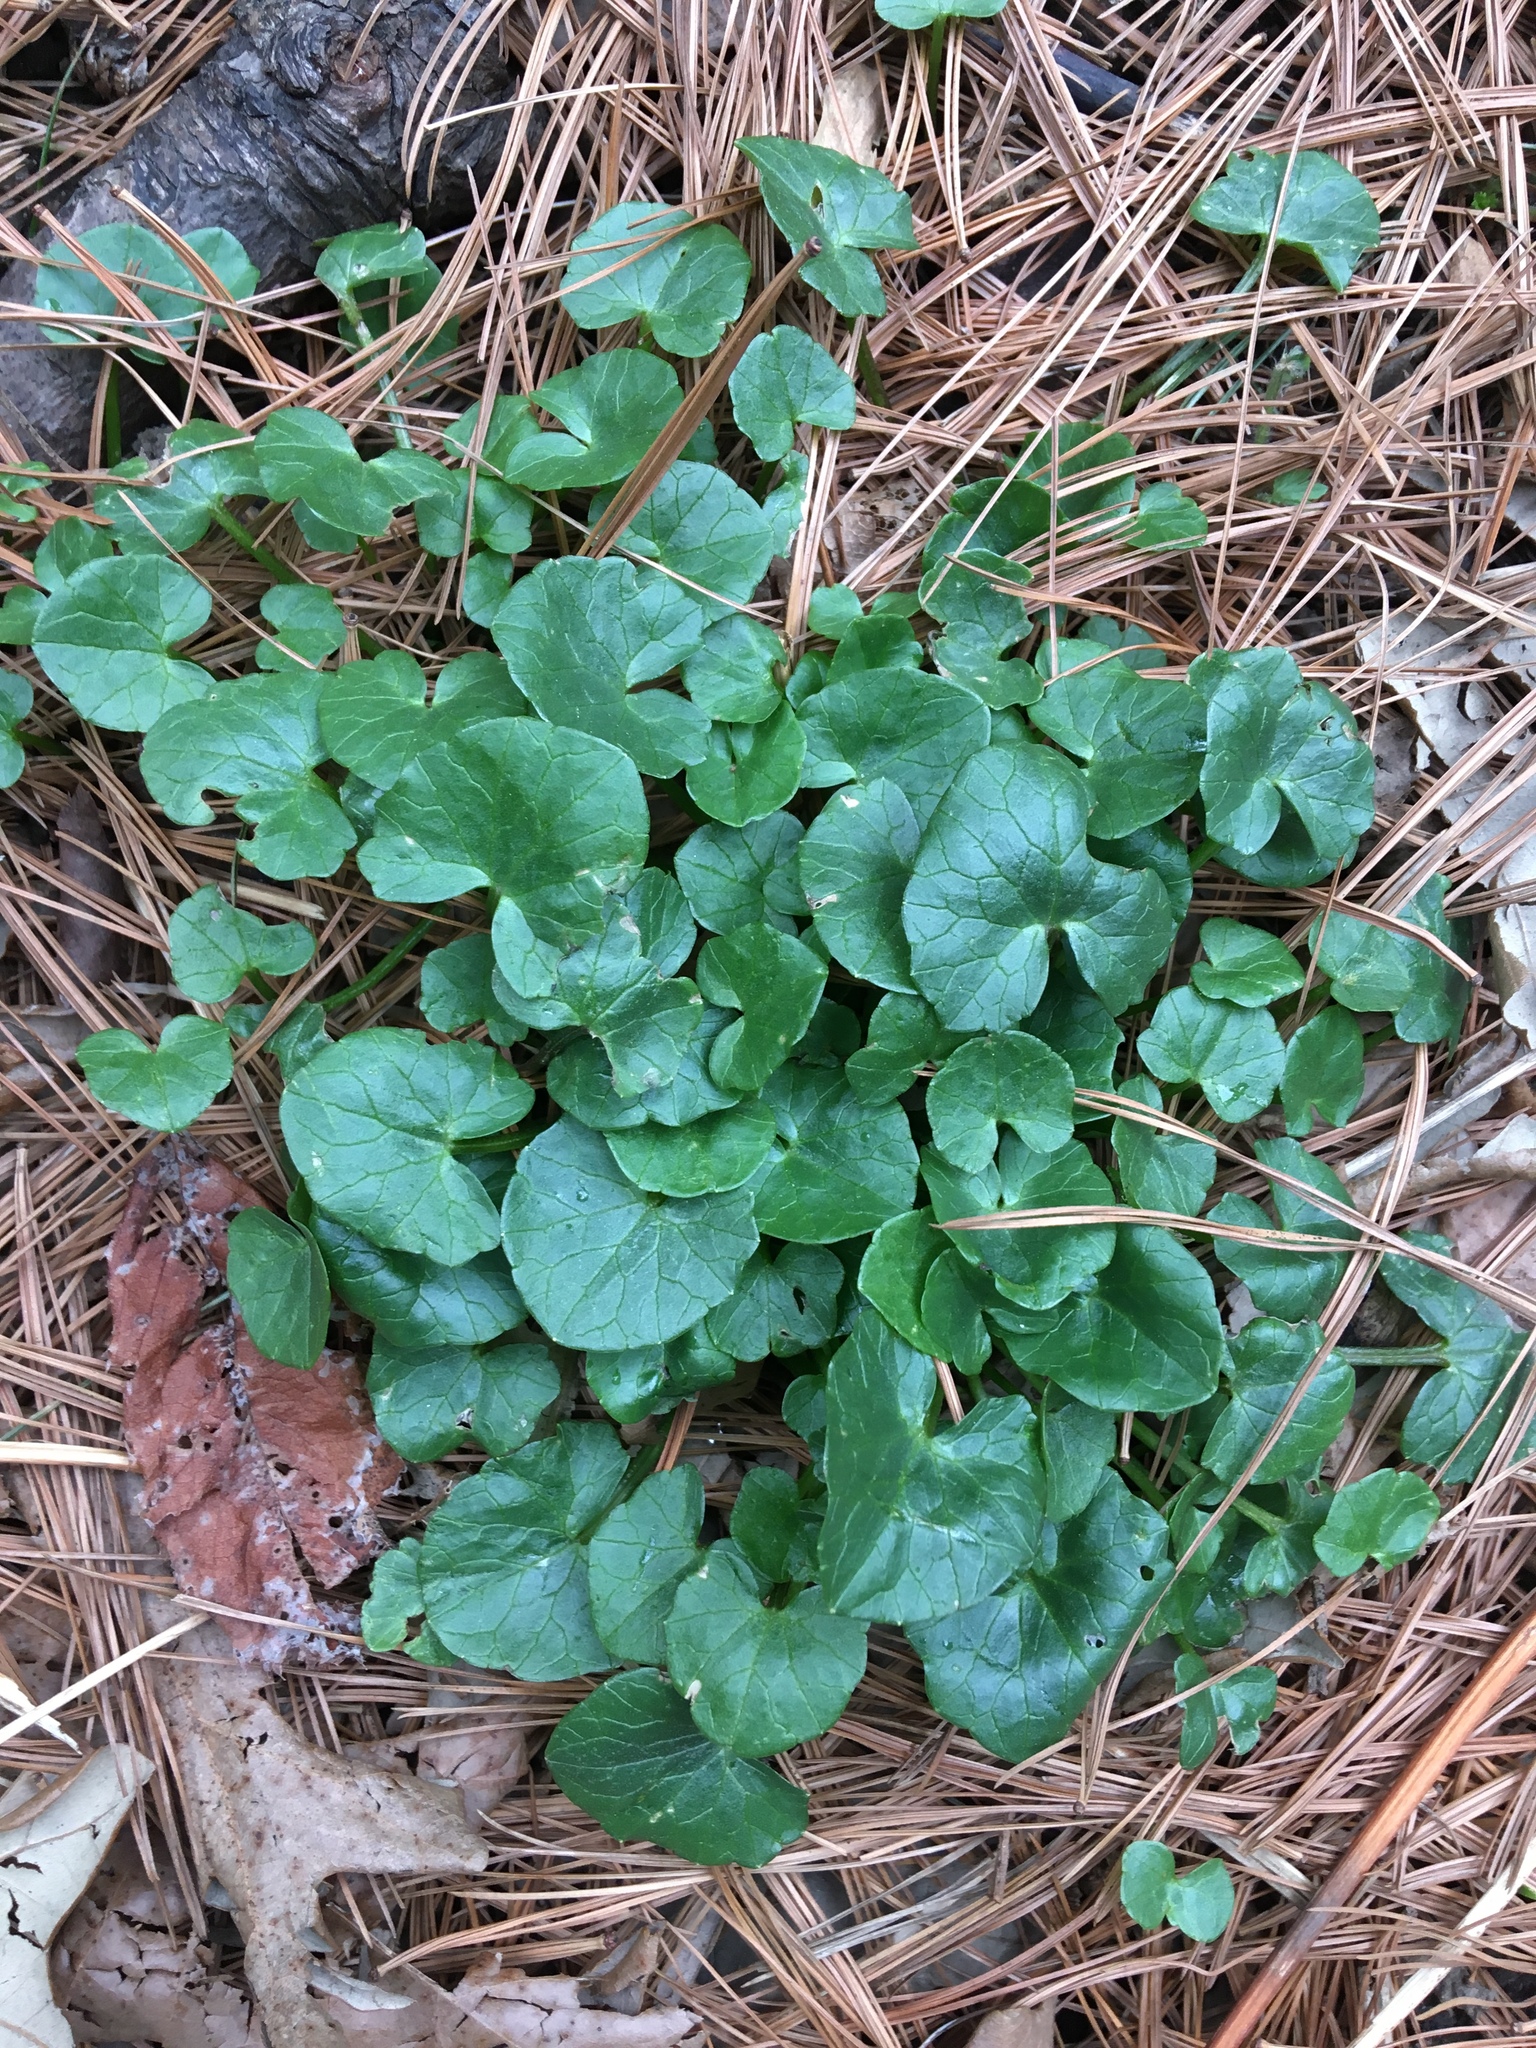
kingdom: Plantae
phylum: Tracheophyta
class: Magnoliopsida
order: Ranunculales
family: Ranunculaceae
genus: Ficaria
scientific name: Ficaria verna
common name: Lesser celandine
